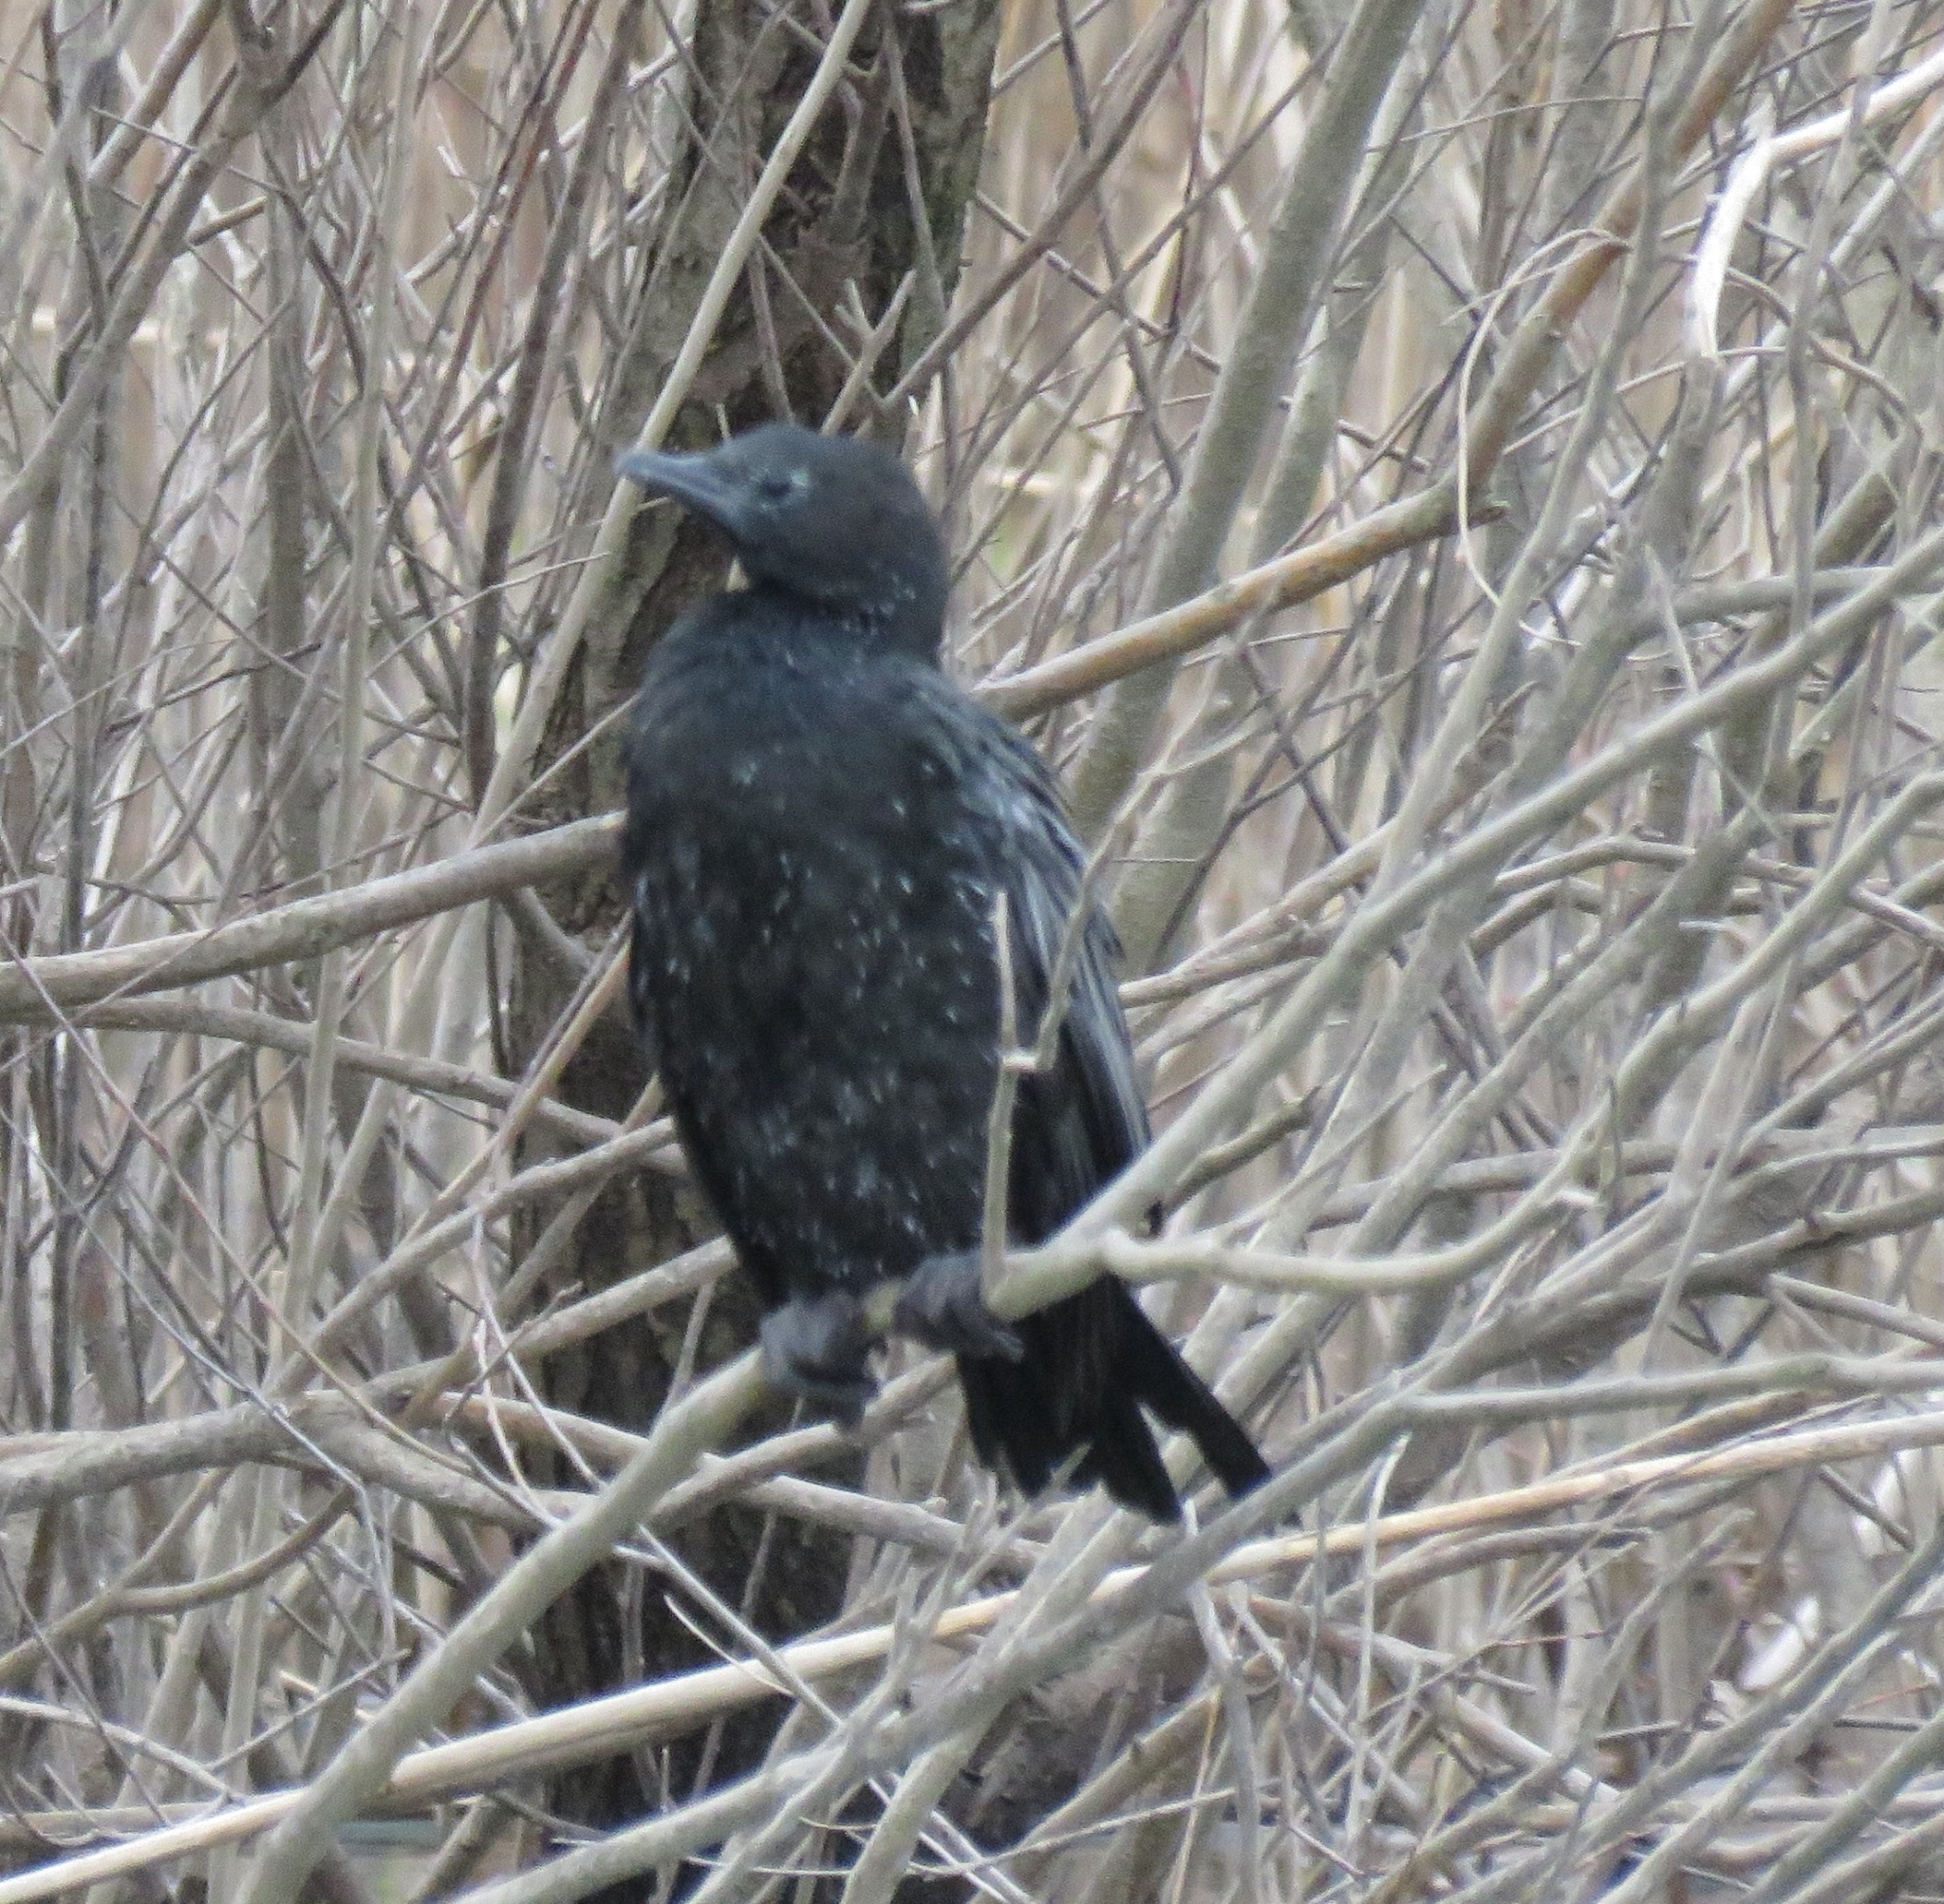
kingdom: Animalia
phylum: Chordata
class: Aves
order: Suliformes
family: Phalacrocoracidae
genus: Microcarbo
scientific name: Microcarbo pygmaeus
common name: Pygmy cormorant
